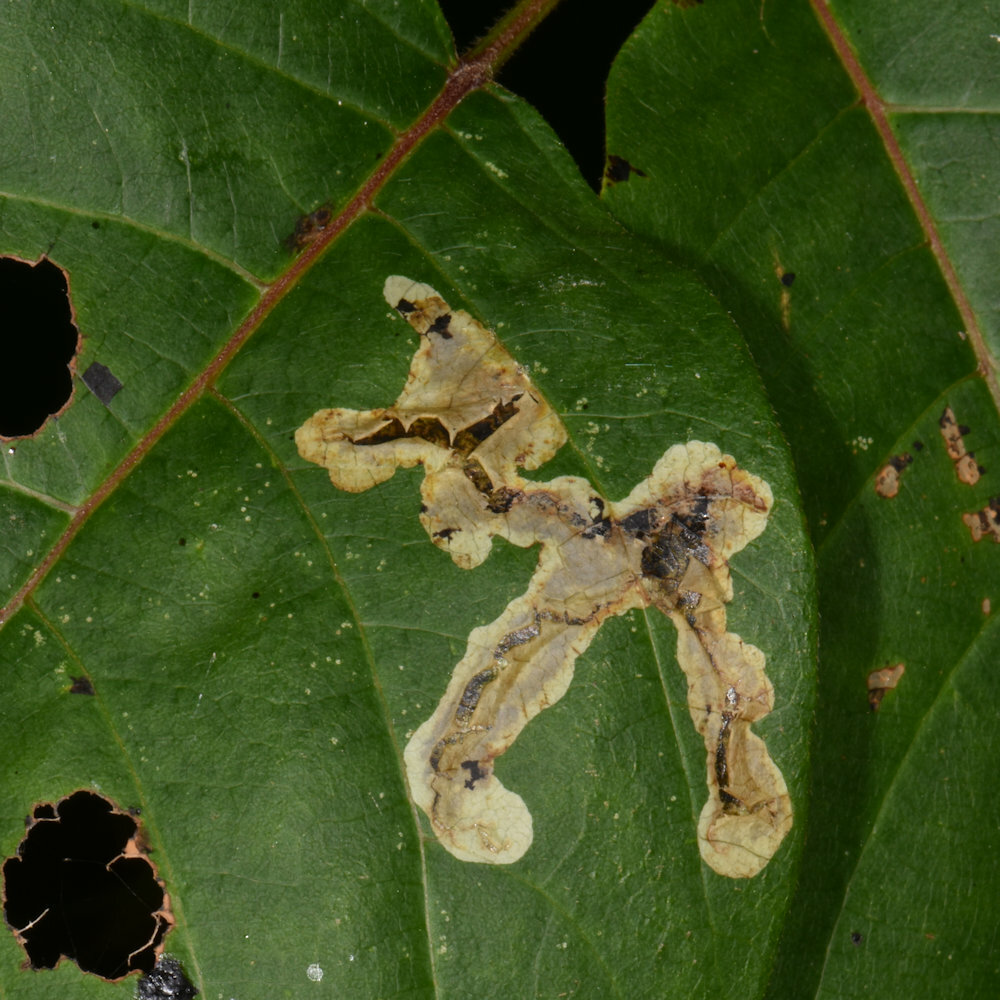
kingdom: Animalia
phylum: Arthropoda
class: Insecta
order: Lepidoptera
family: Gracillariidae
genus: Cameraria
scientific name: Cameraria guttifinitella
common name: Poison ivy leaf-miner moth
